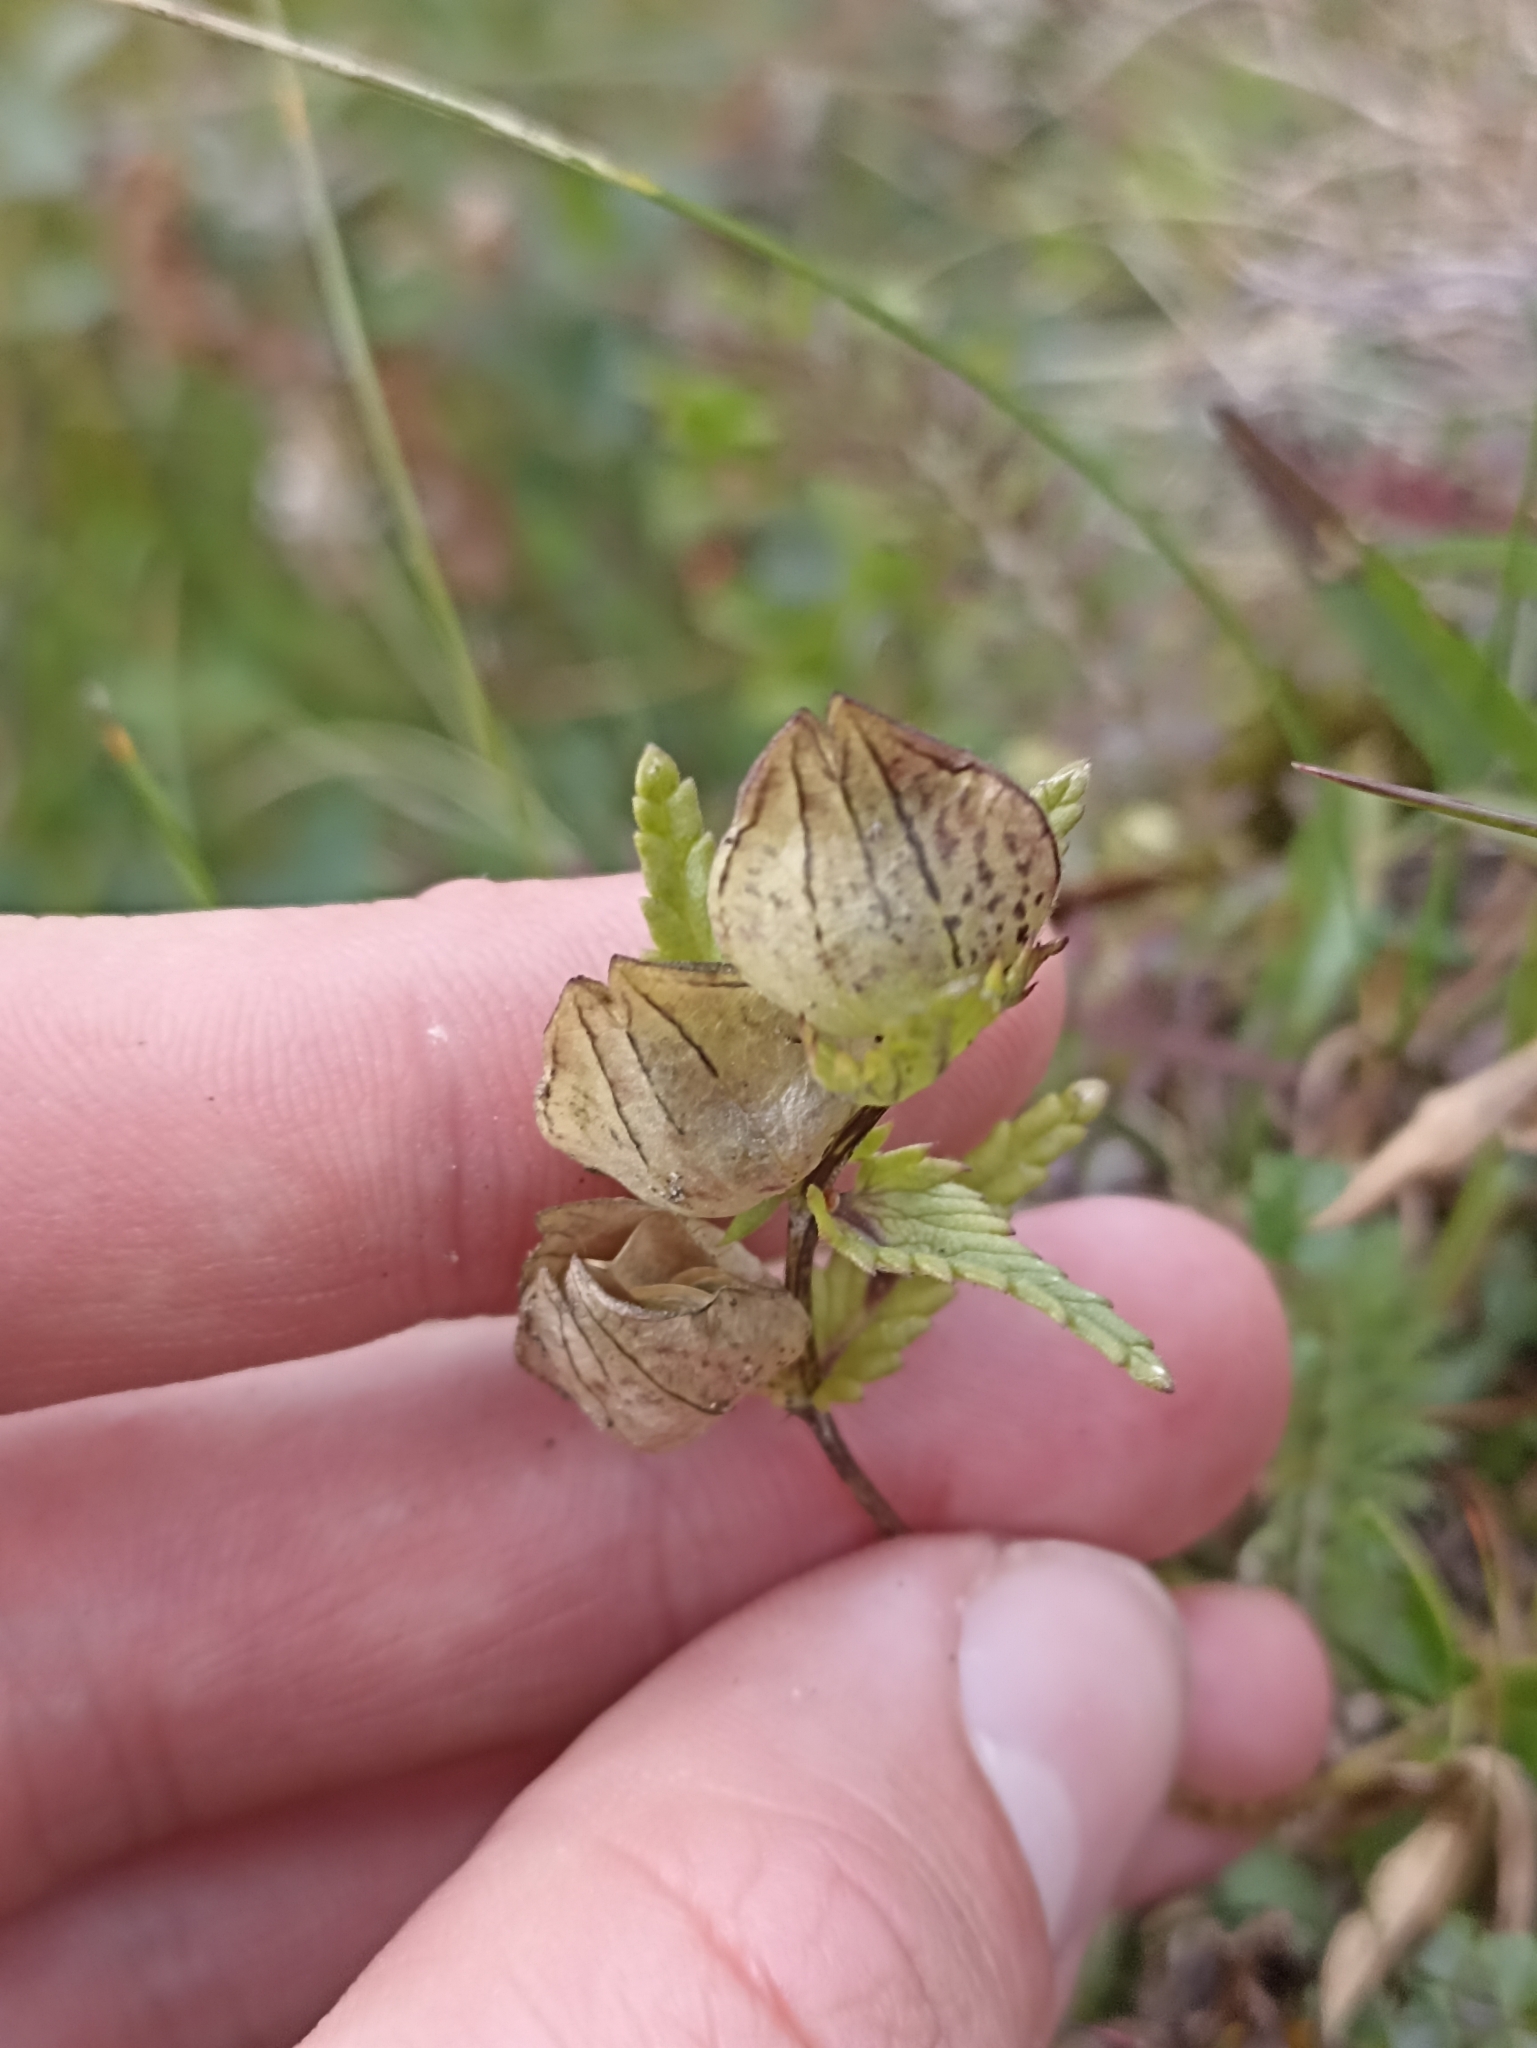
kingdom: Plantae
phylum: Tracheophyta
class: Magnoliopsida
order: Lamiales
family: Orobanchaceae
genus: Rhinanthus
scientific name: Rhinanthus minor
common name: Yellow-rattle
